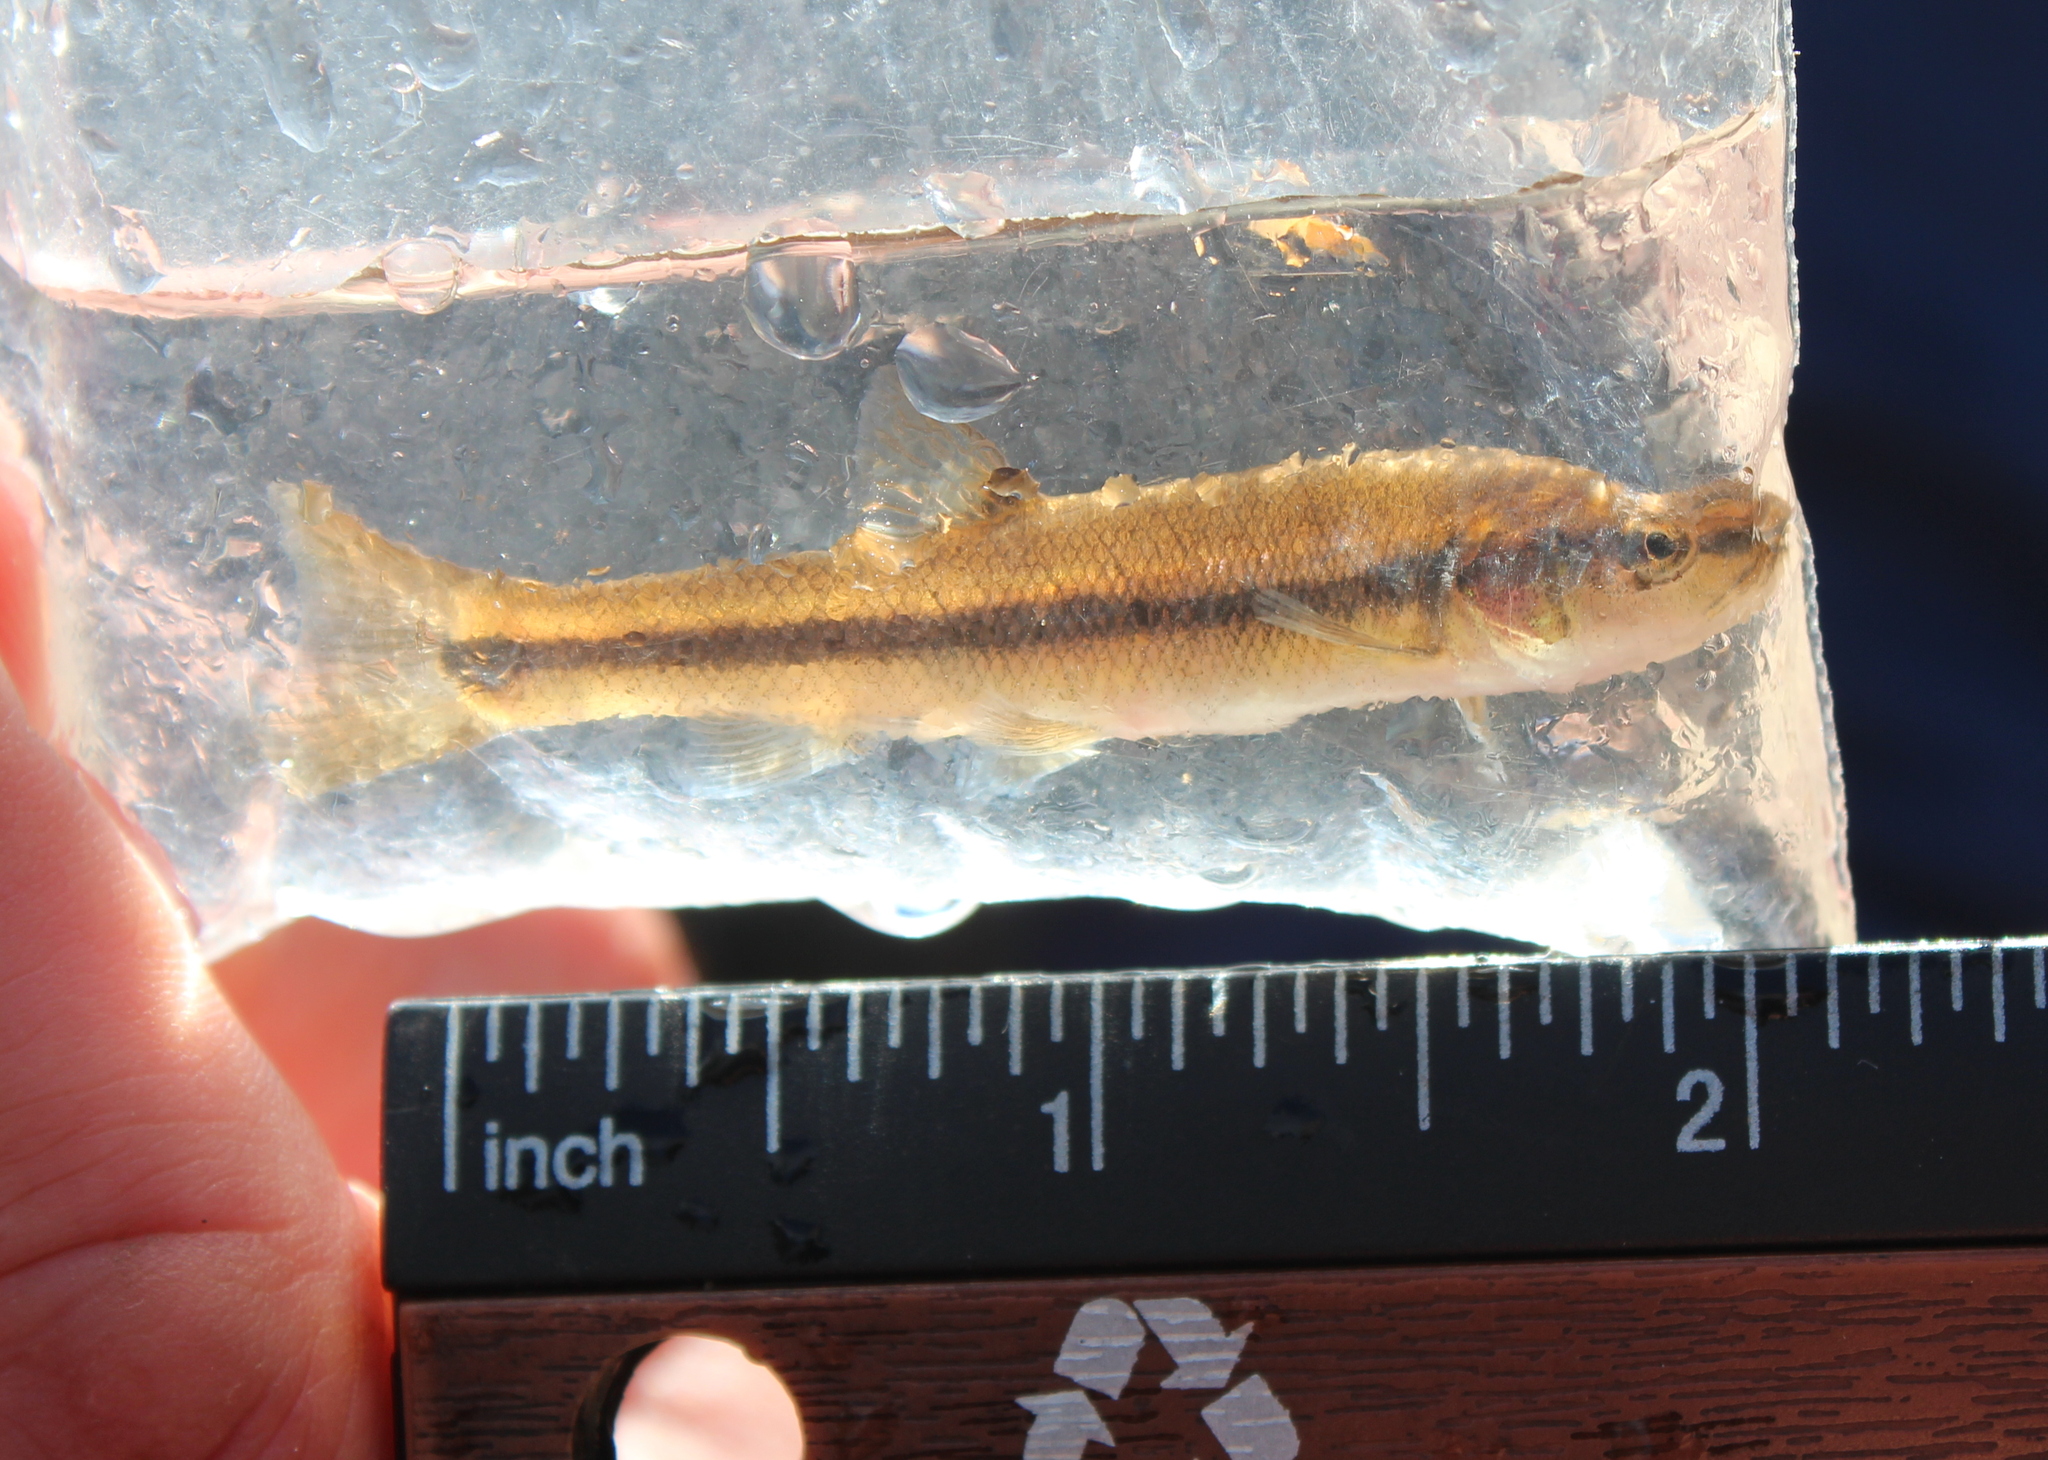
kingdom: Animalia
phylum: Chordata
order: Cypriniformes
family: Cyprinidae
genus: Semotilus
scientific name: Semotilus atromaculatus
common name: Creek chub
